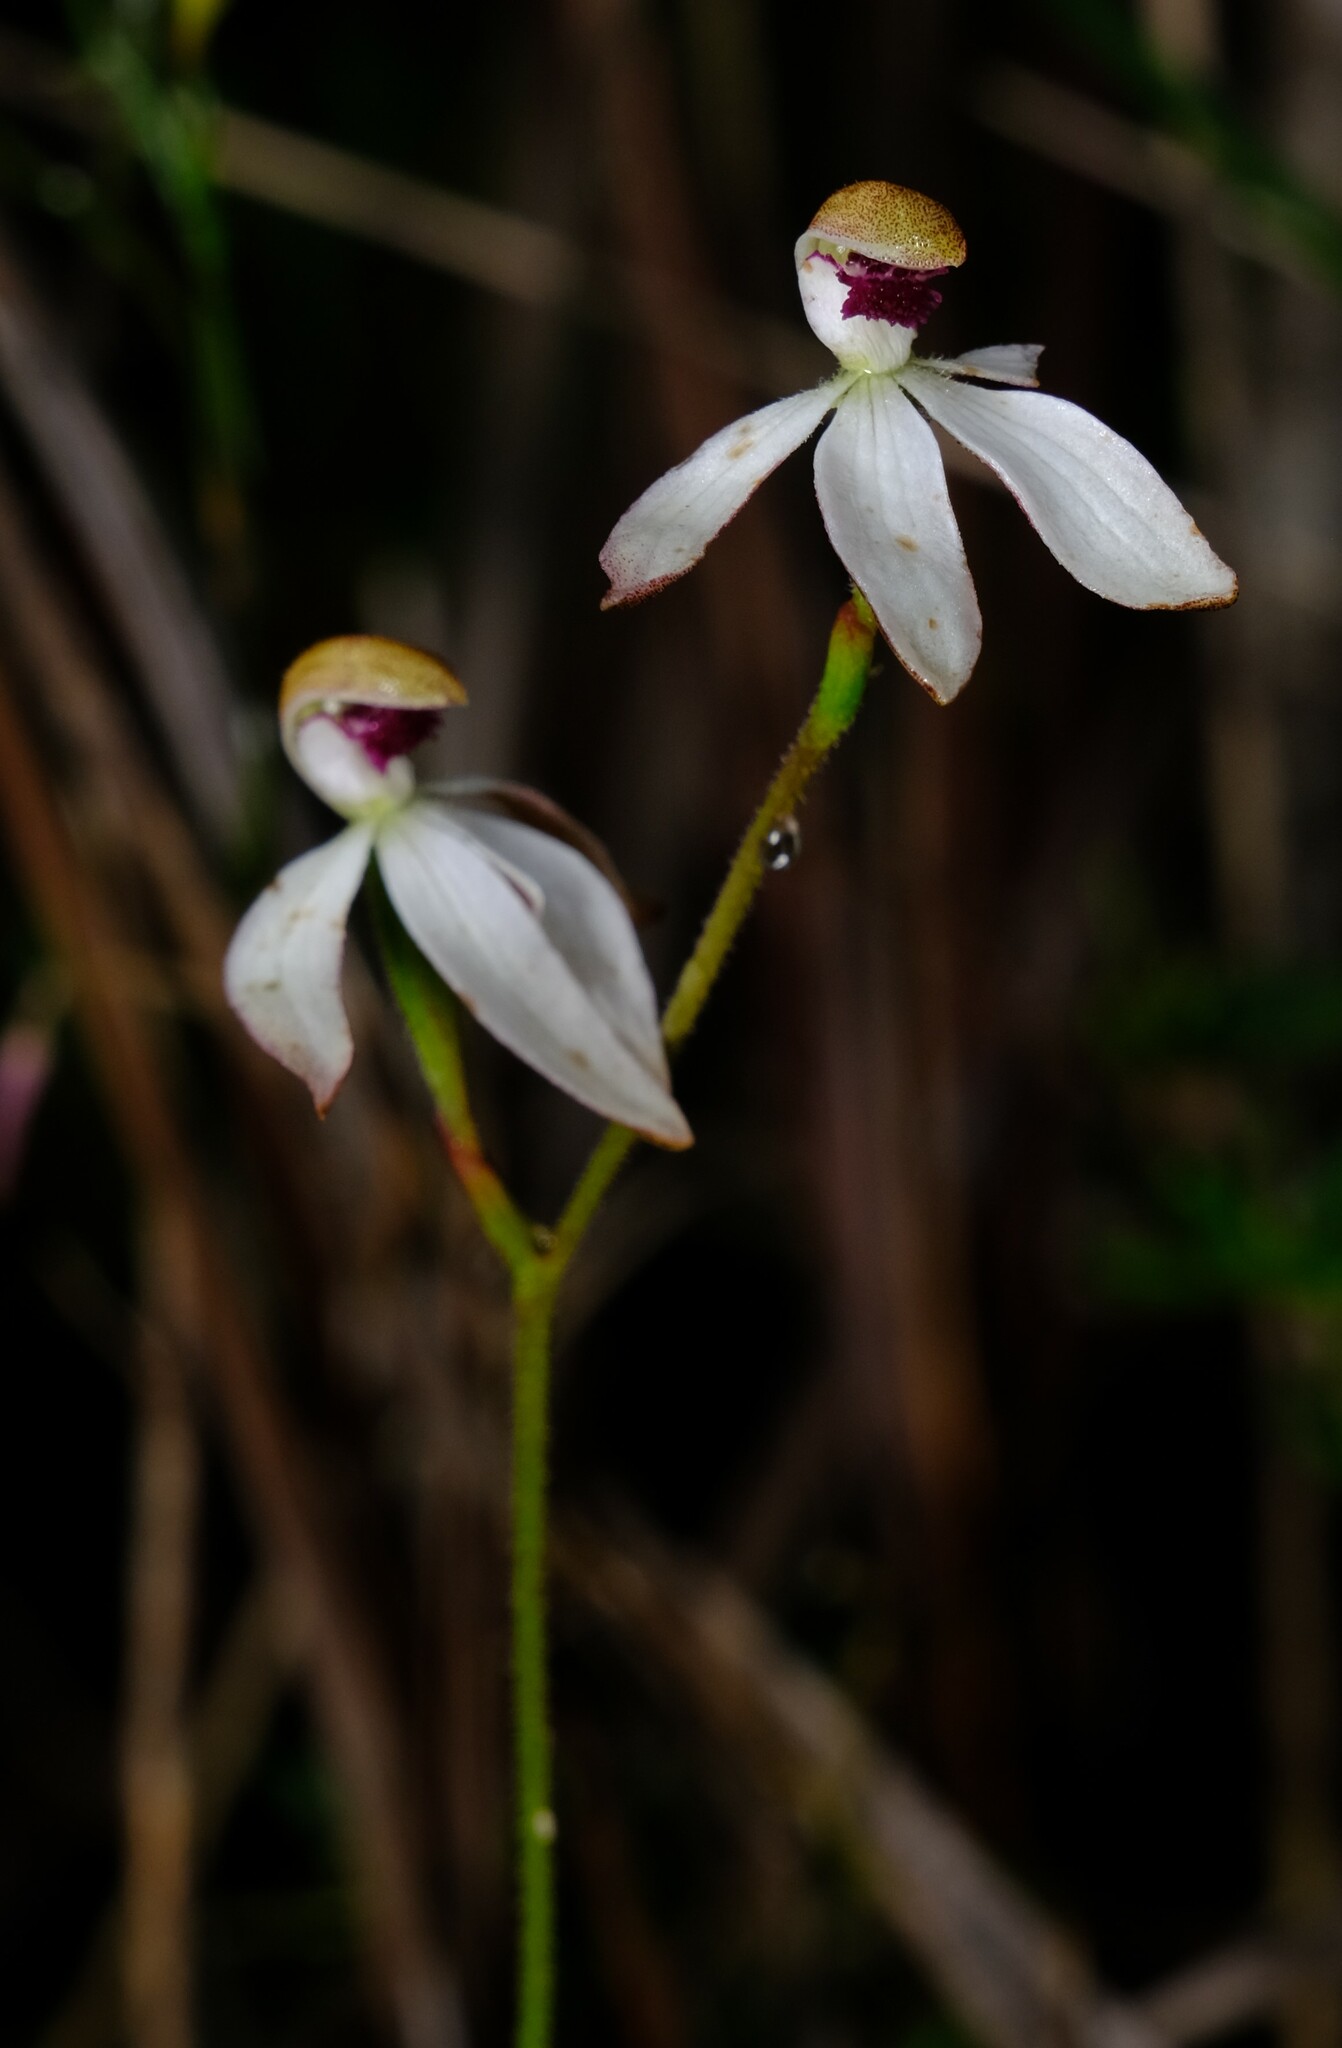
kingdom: Plantae
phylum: Tracheophyta
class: Liliopsida
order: Asparagales
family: Orchidaceae
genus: Caladenia
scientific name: Caladenia cucullata
